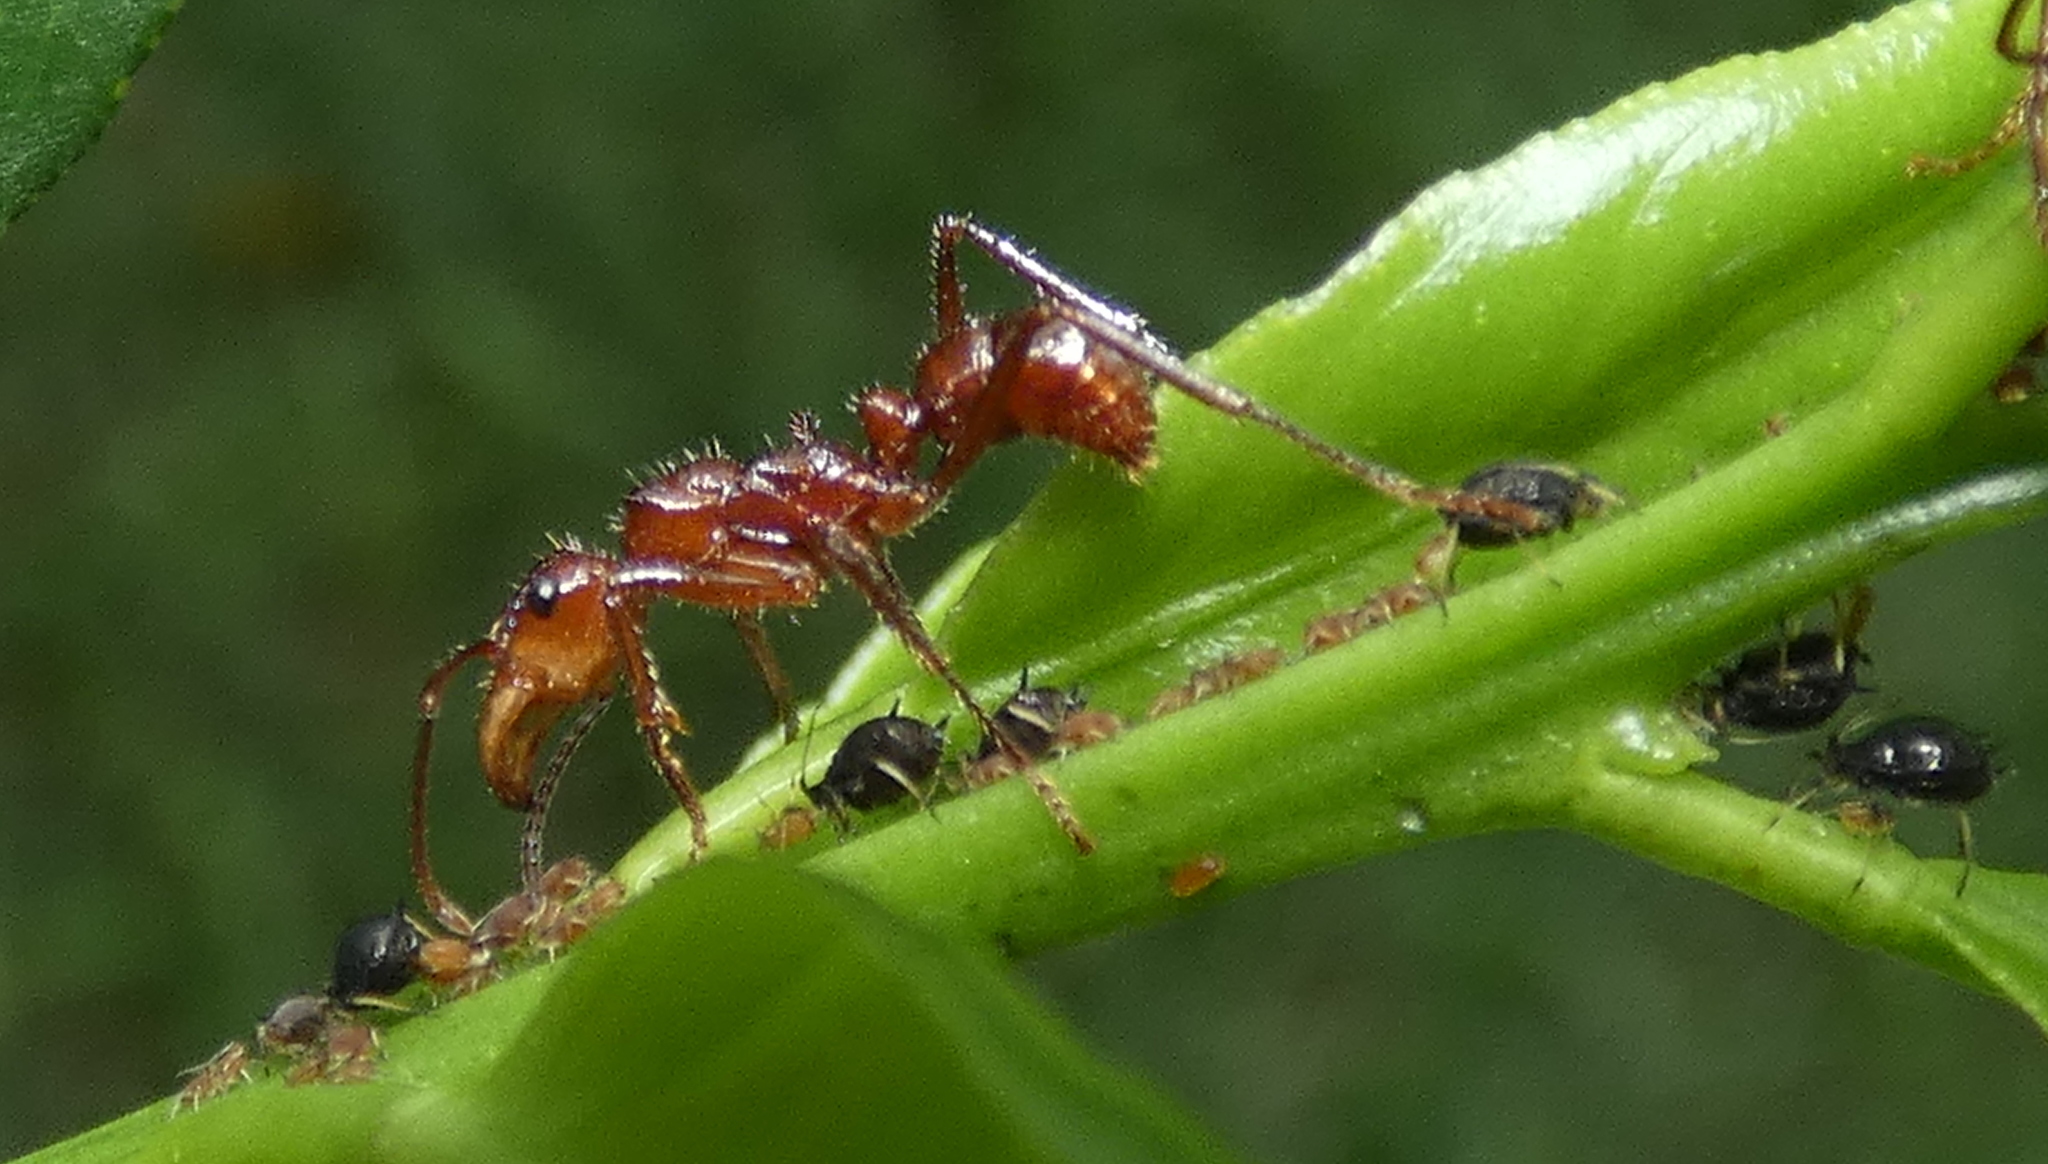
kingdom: Animalia
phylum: Arthropoda
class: Insecta
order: Hymenoptera
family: Formicidae
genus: Ectatomma
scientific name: Ectatomma tuberculatum
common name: Ant
